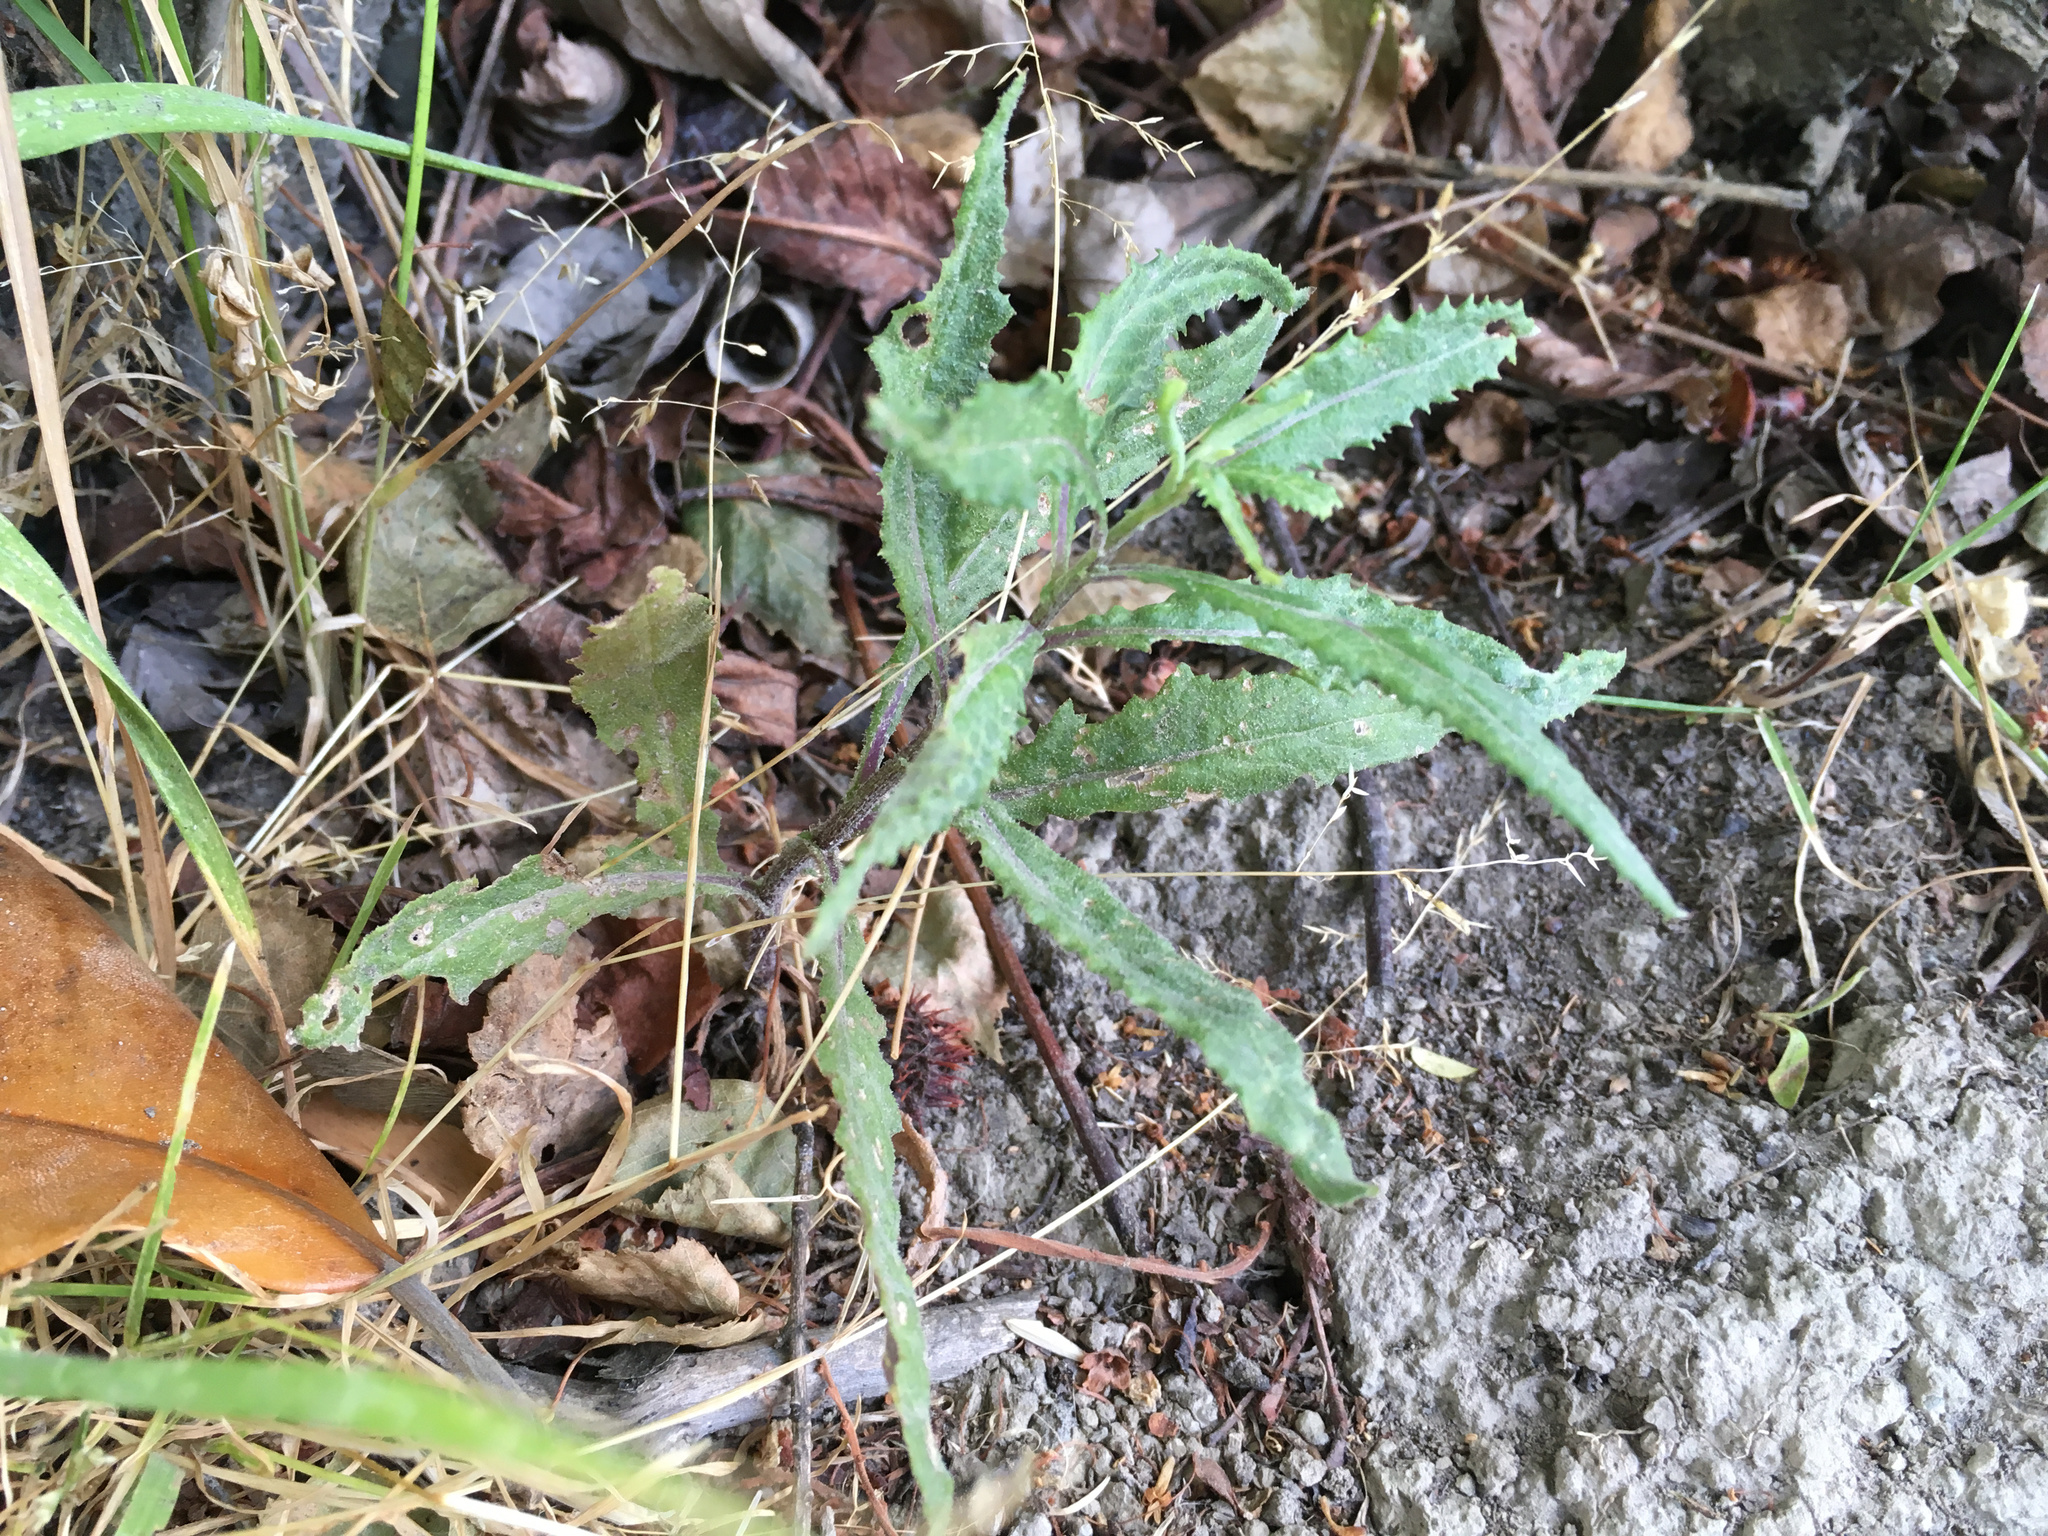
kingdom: Plantae
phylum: Tracheophyta
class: Magnoliopsida
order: Asterales
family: Asteraceae
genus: Senecio
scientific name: Senecio minimus
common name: Toothed fireweed
